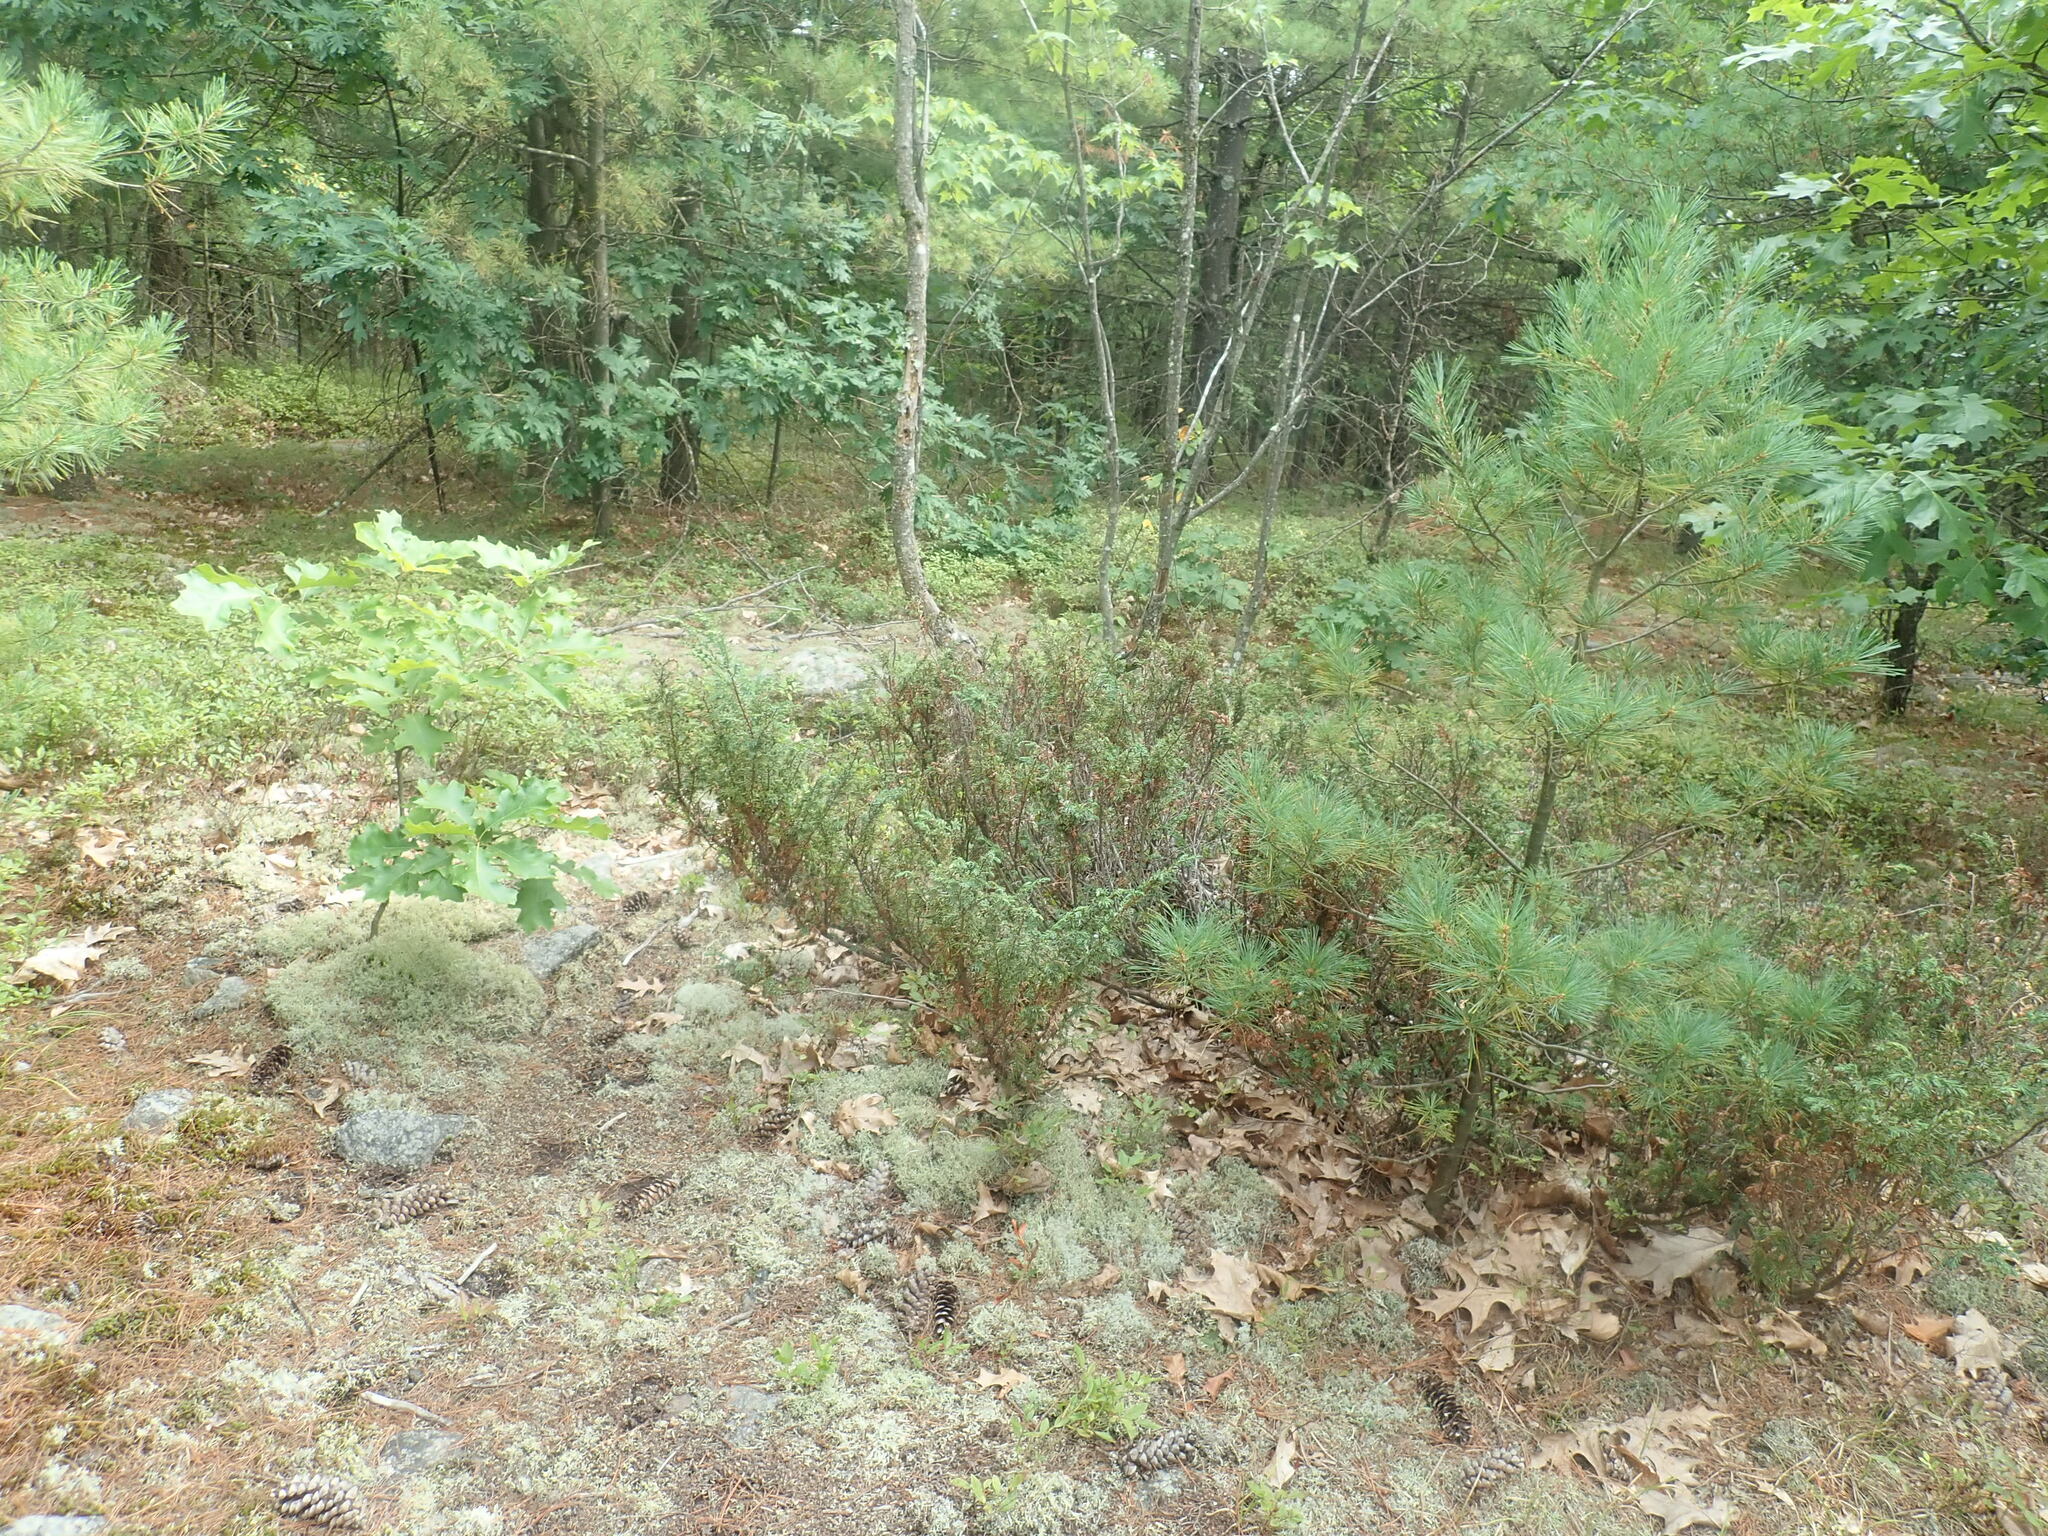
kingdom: Plantae
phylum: Tracheophyta
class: Pinopsida
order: Pinales
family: Cupressaceae
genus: Juniperus
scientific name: Juniperus communis
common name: Common juniper
